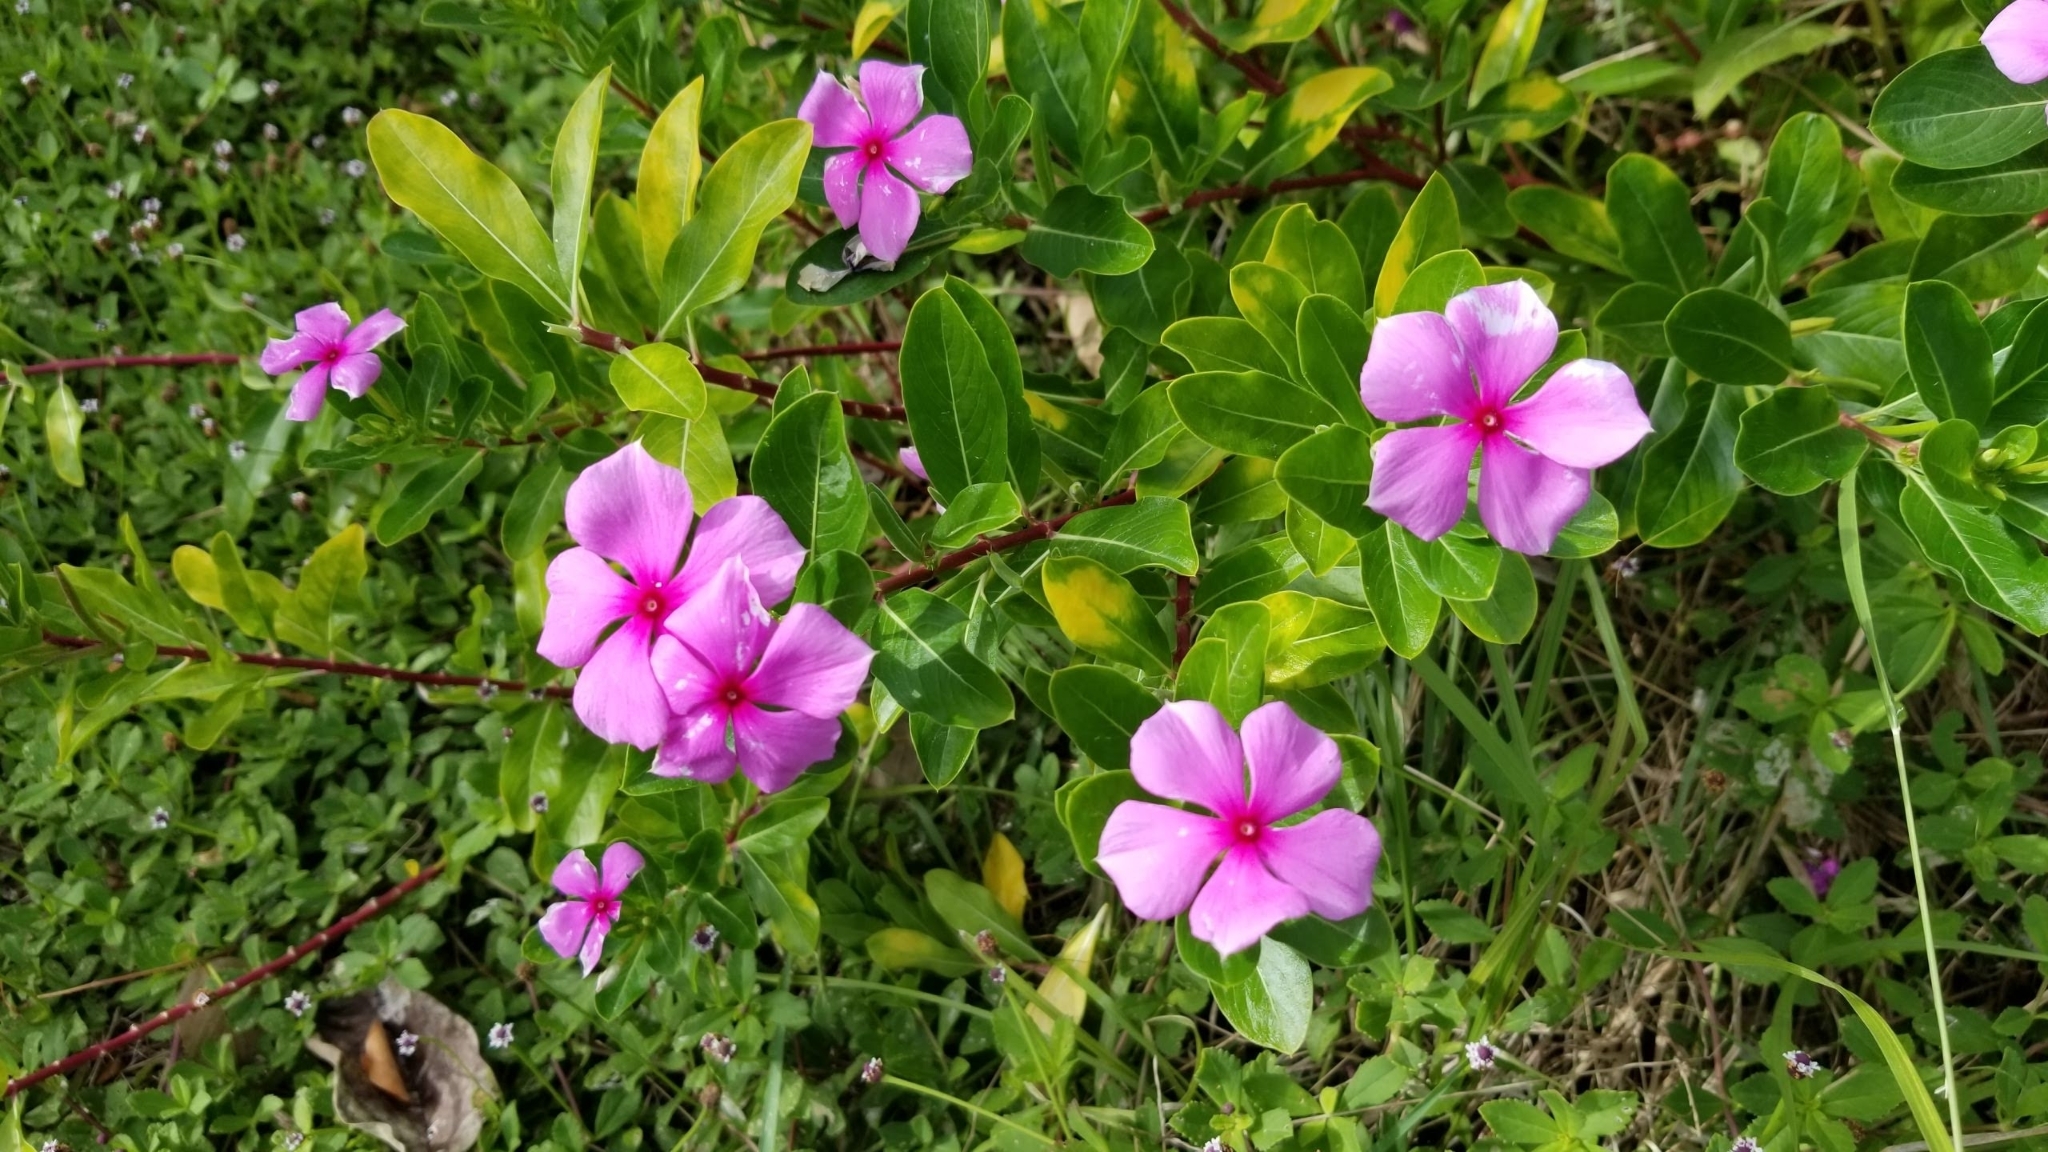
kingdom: Plantae
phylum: Tracheophyta
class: Magnoliopsida
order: Gentianales
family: Apocynaceae
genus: Catharanthus
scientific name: Catharanthus roseus
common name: Madagascar periwinkle
